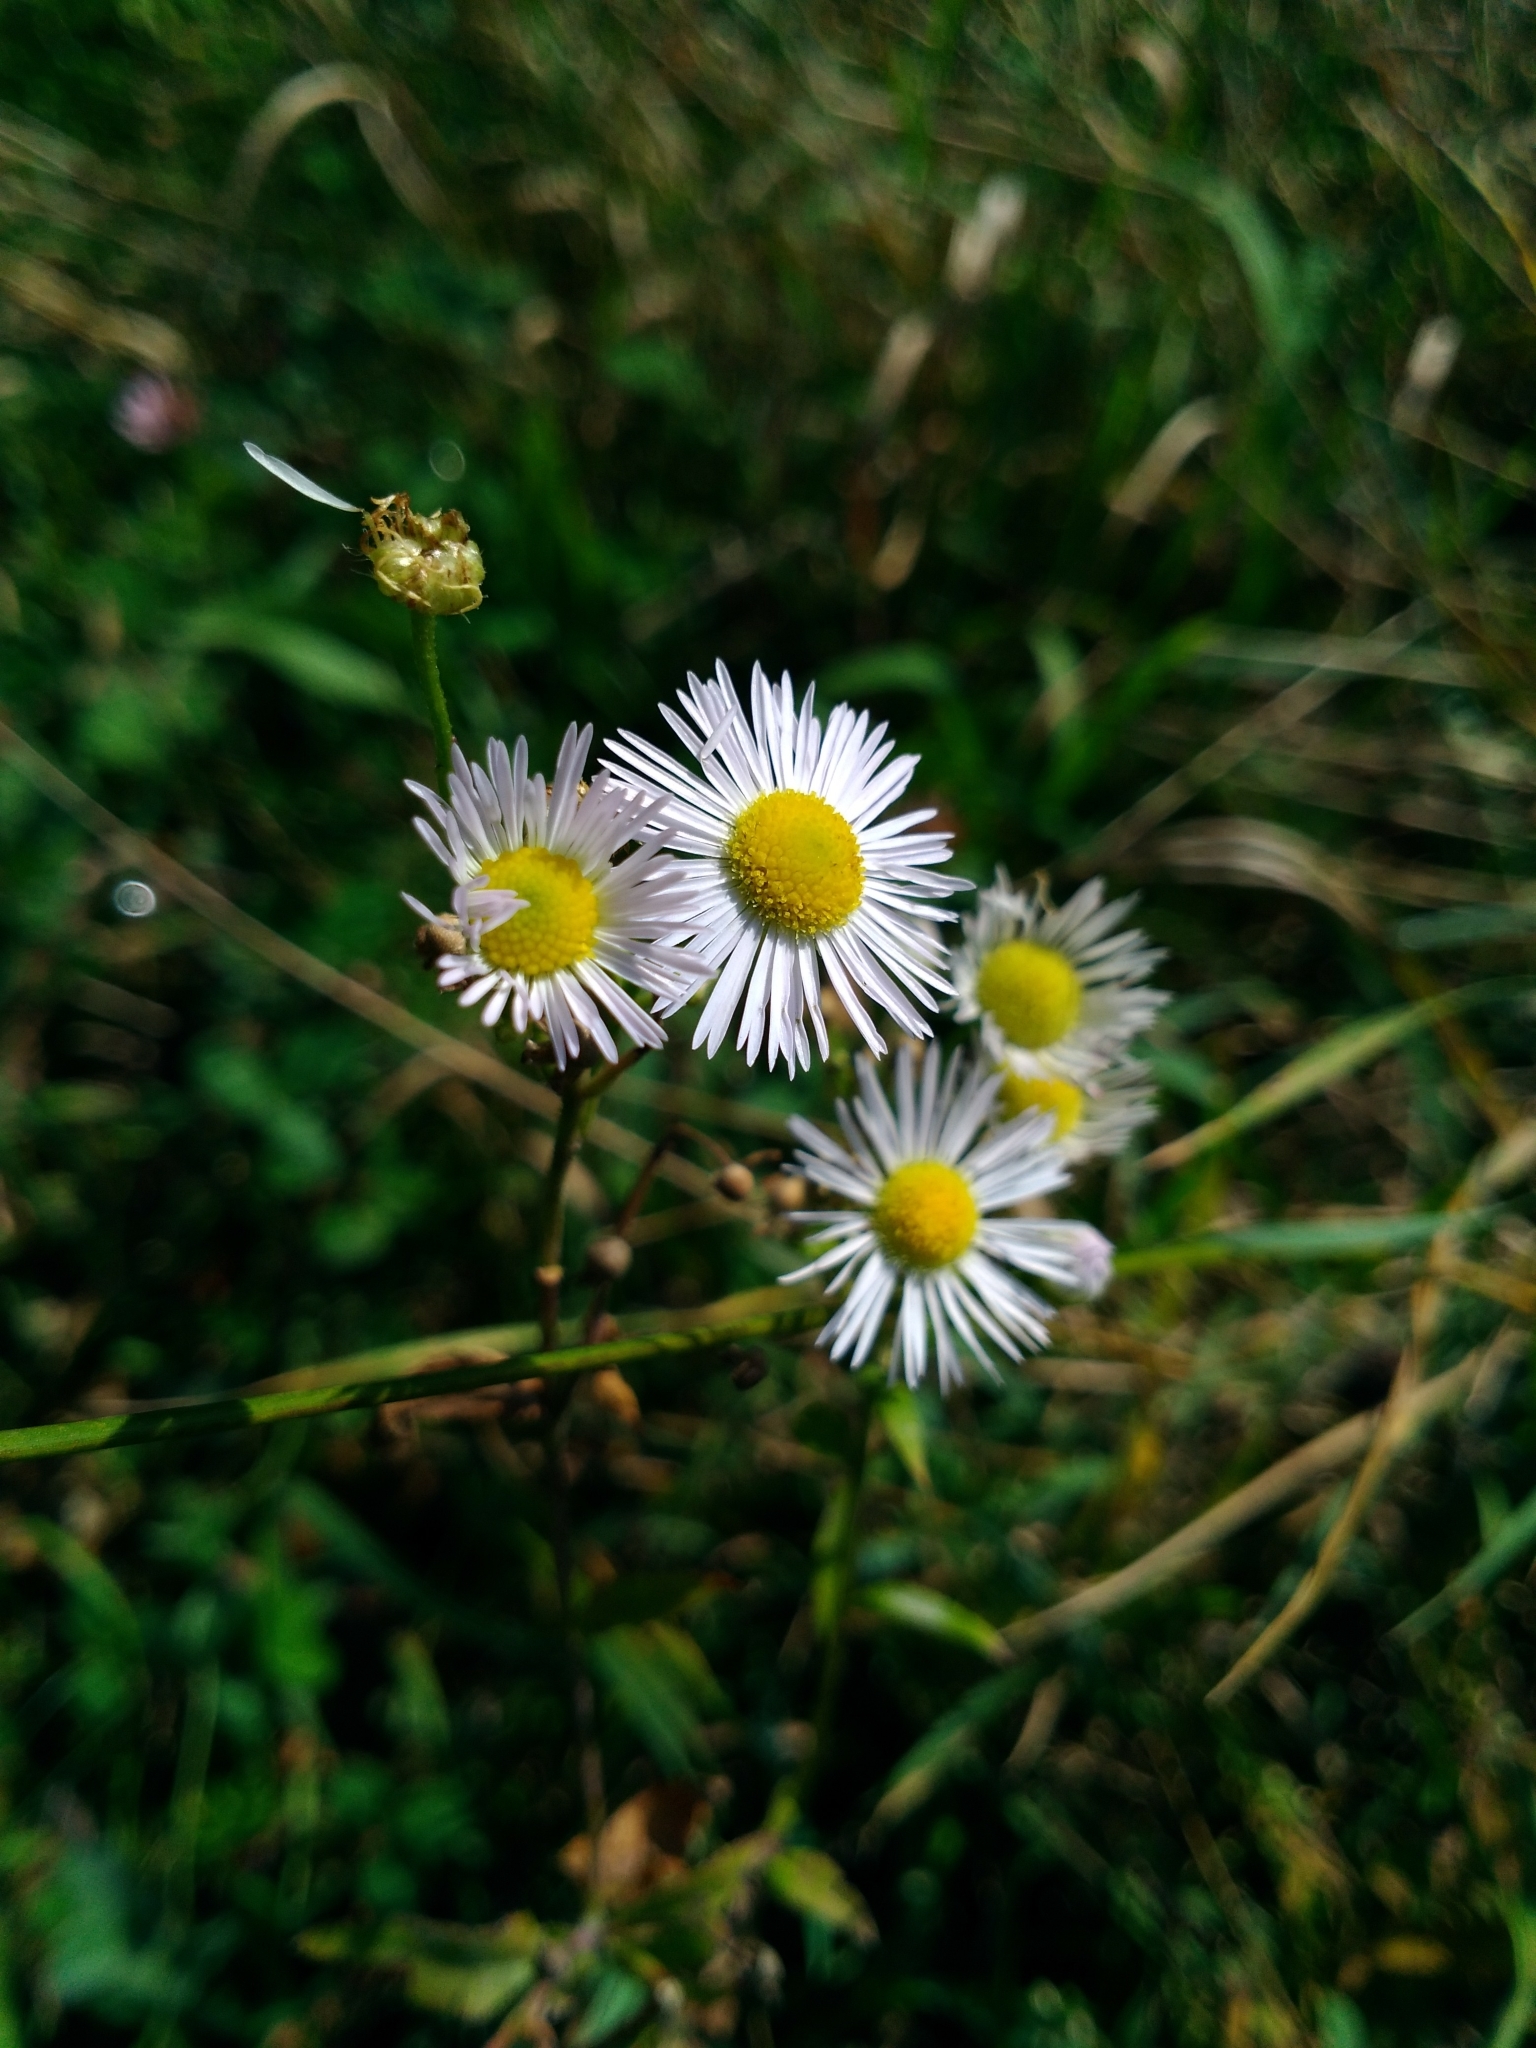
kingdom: Plantae
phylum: Tracheophyta
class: Magnoliopsida
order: Asterales
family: Asteraceae
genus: Erigeron
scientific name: Erigeron strigosus
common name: Common eastern fleabane
